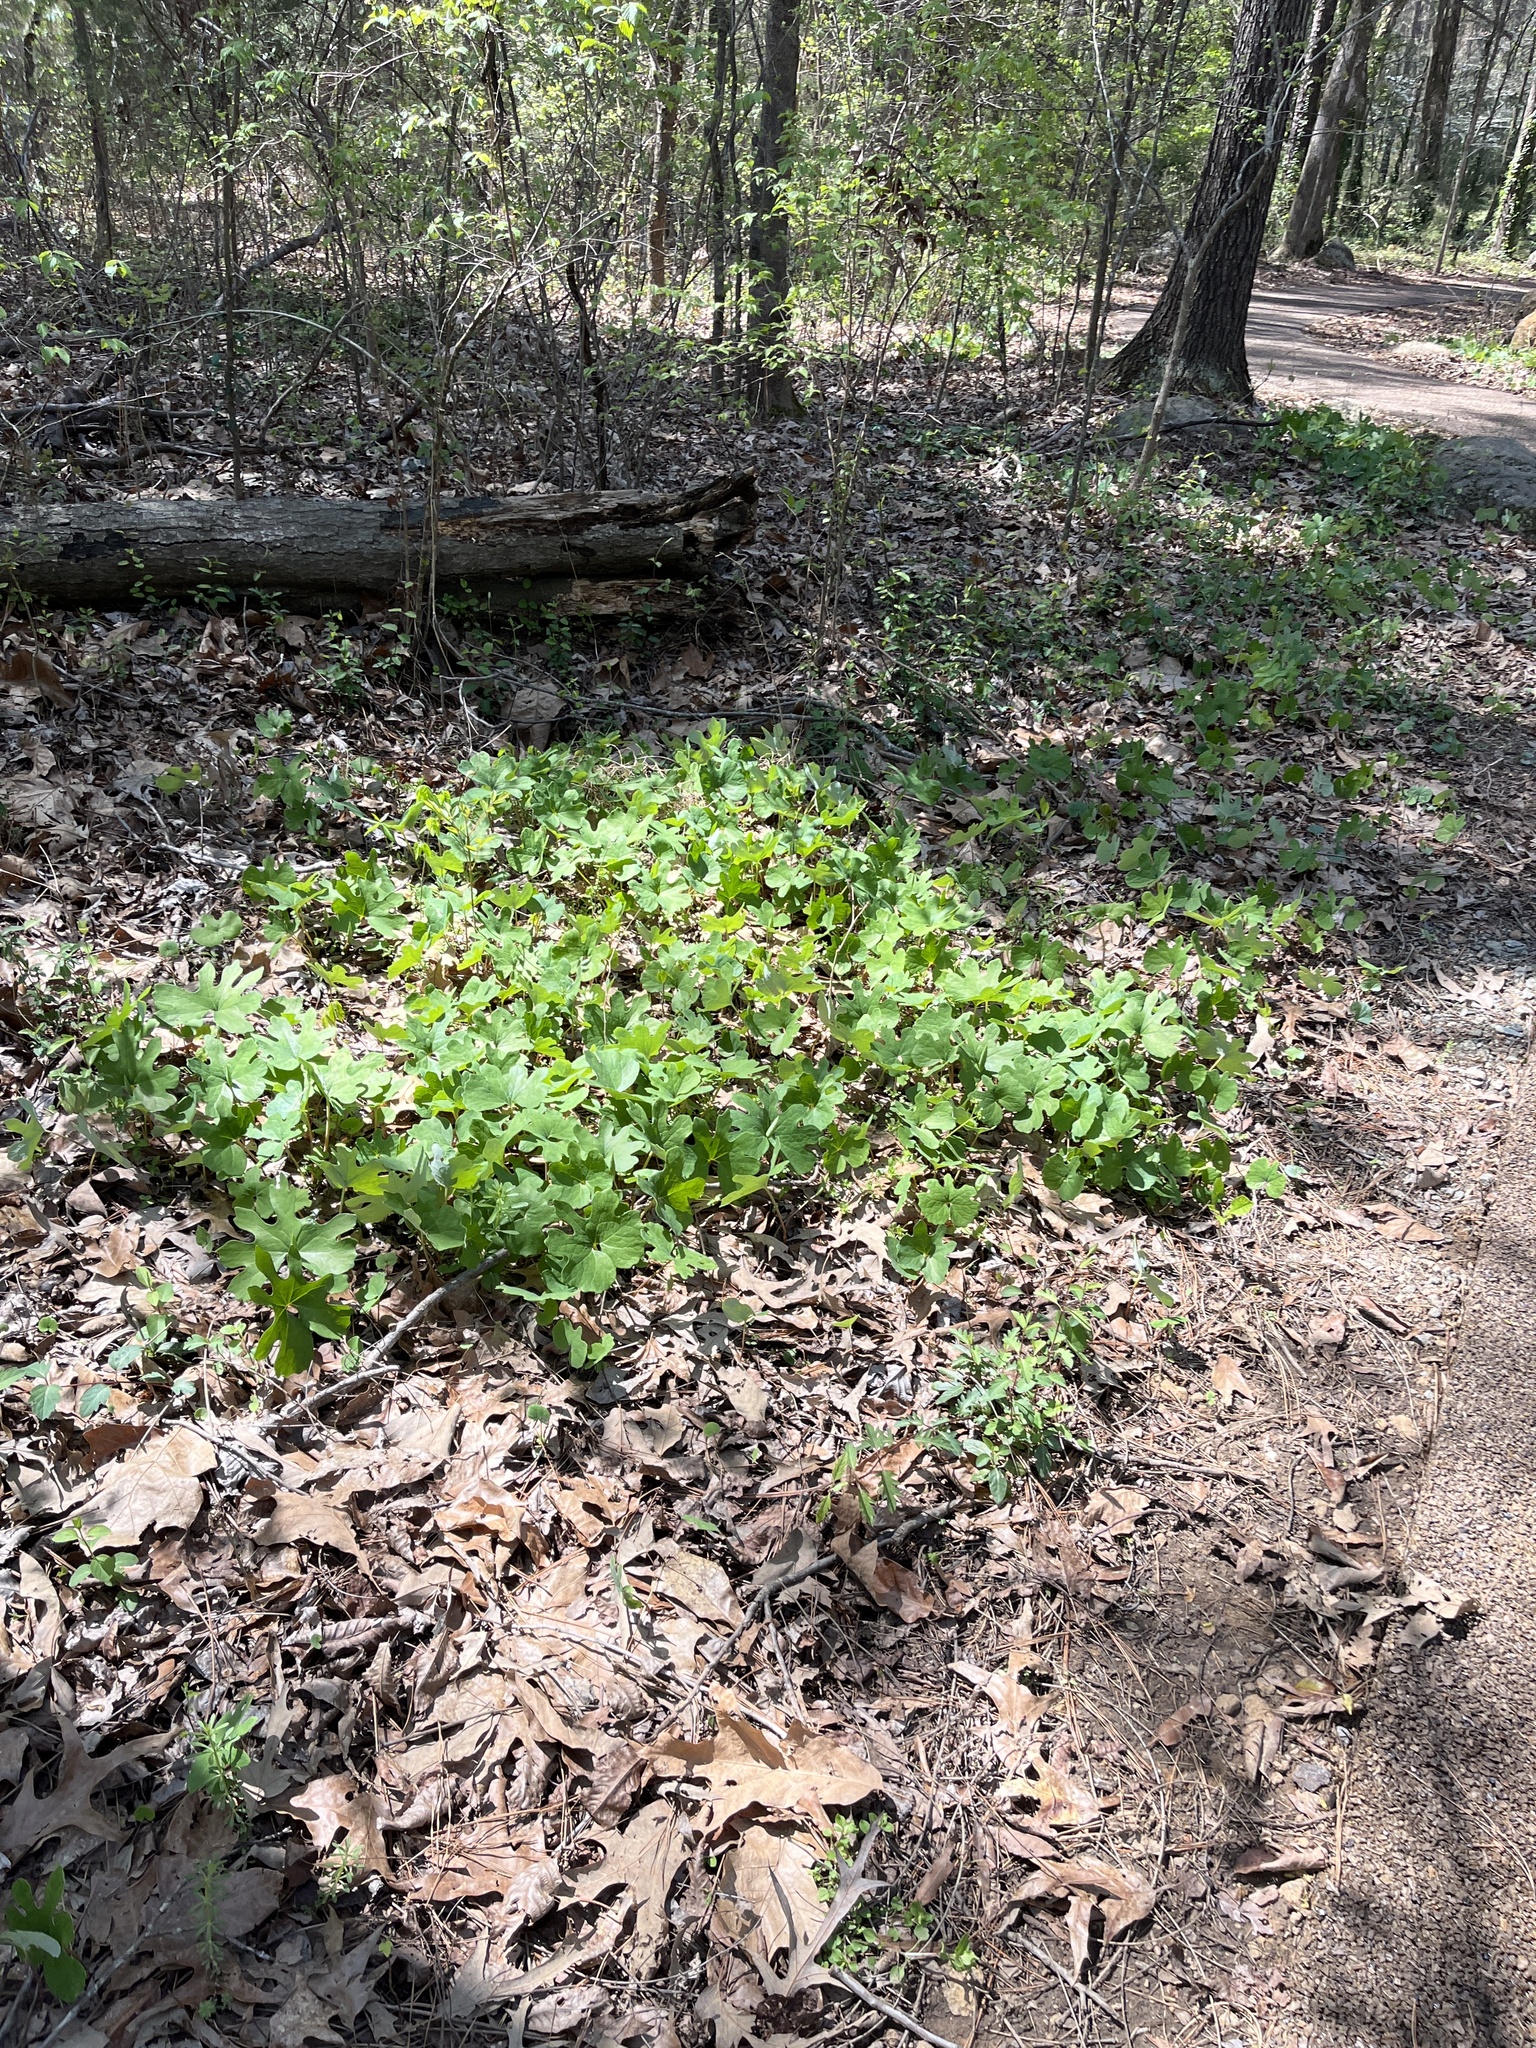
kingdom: Plantae
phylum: Tracheophyta
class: Magnoliopsida
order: Ranunculales
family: Papaveraceae
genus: Sanguinaria
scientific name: Sanguinaria canadensis
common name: Bloodroot
